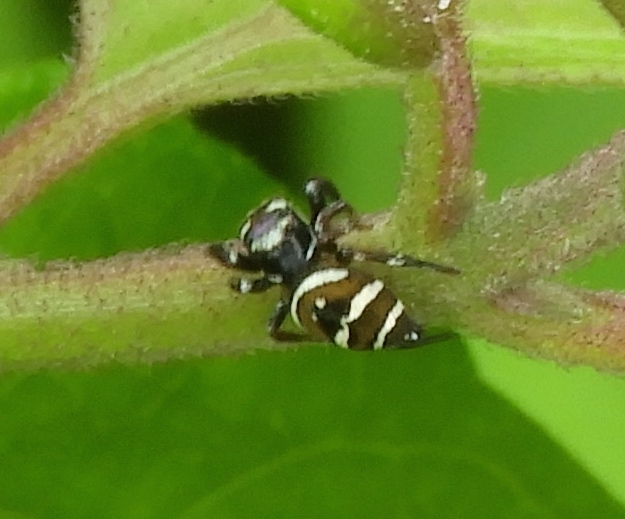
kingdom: Animalia
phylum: Arthropoda
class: Arachnida
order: Araneae
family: Salticidae
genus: Sassacus
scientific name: Sassacus
